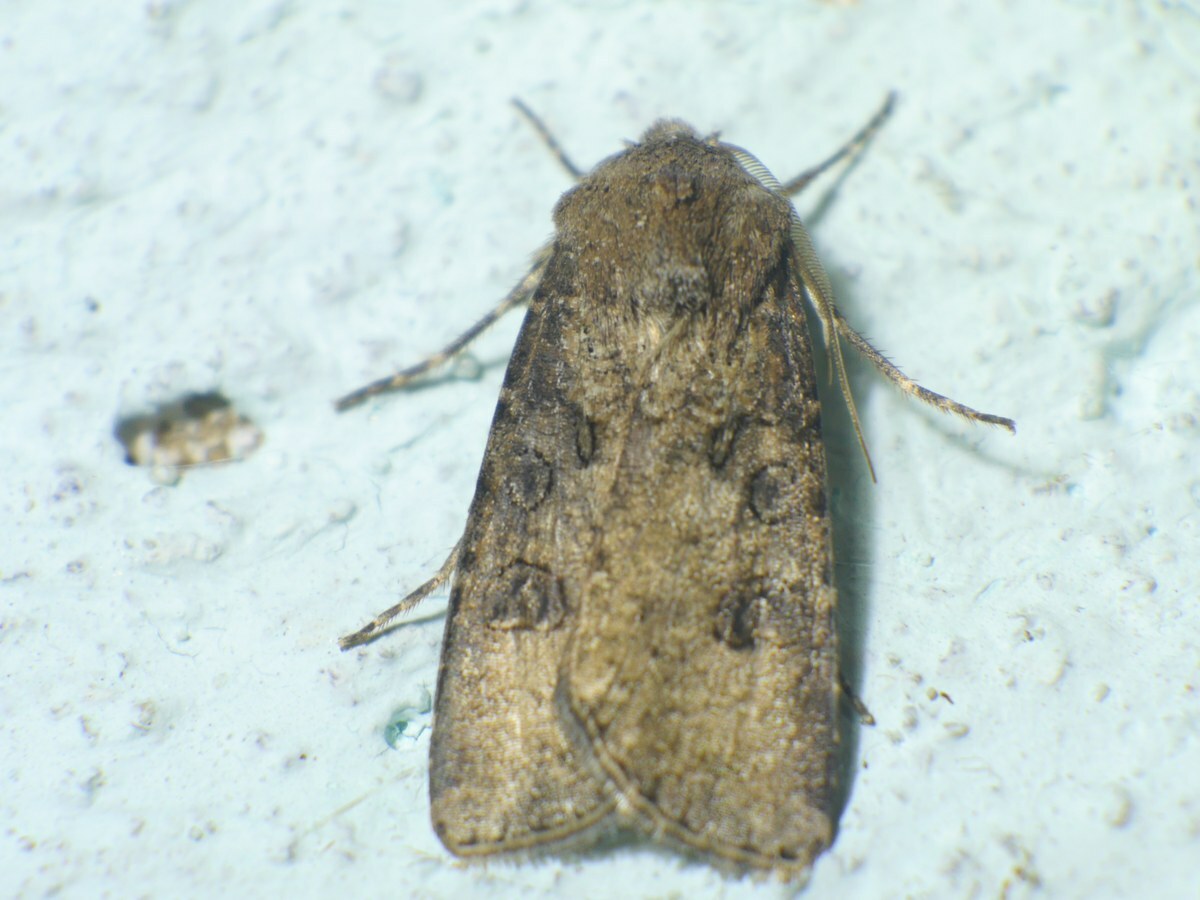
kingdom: Animalia
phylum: Arthropoda
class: Insecta
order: Lepidoptera
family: Noctuidae
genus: Agrotis
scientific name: Agrotis segetum
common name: Turnip moth
